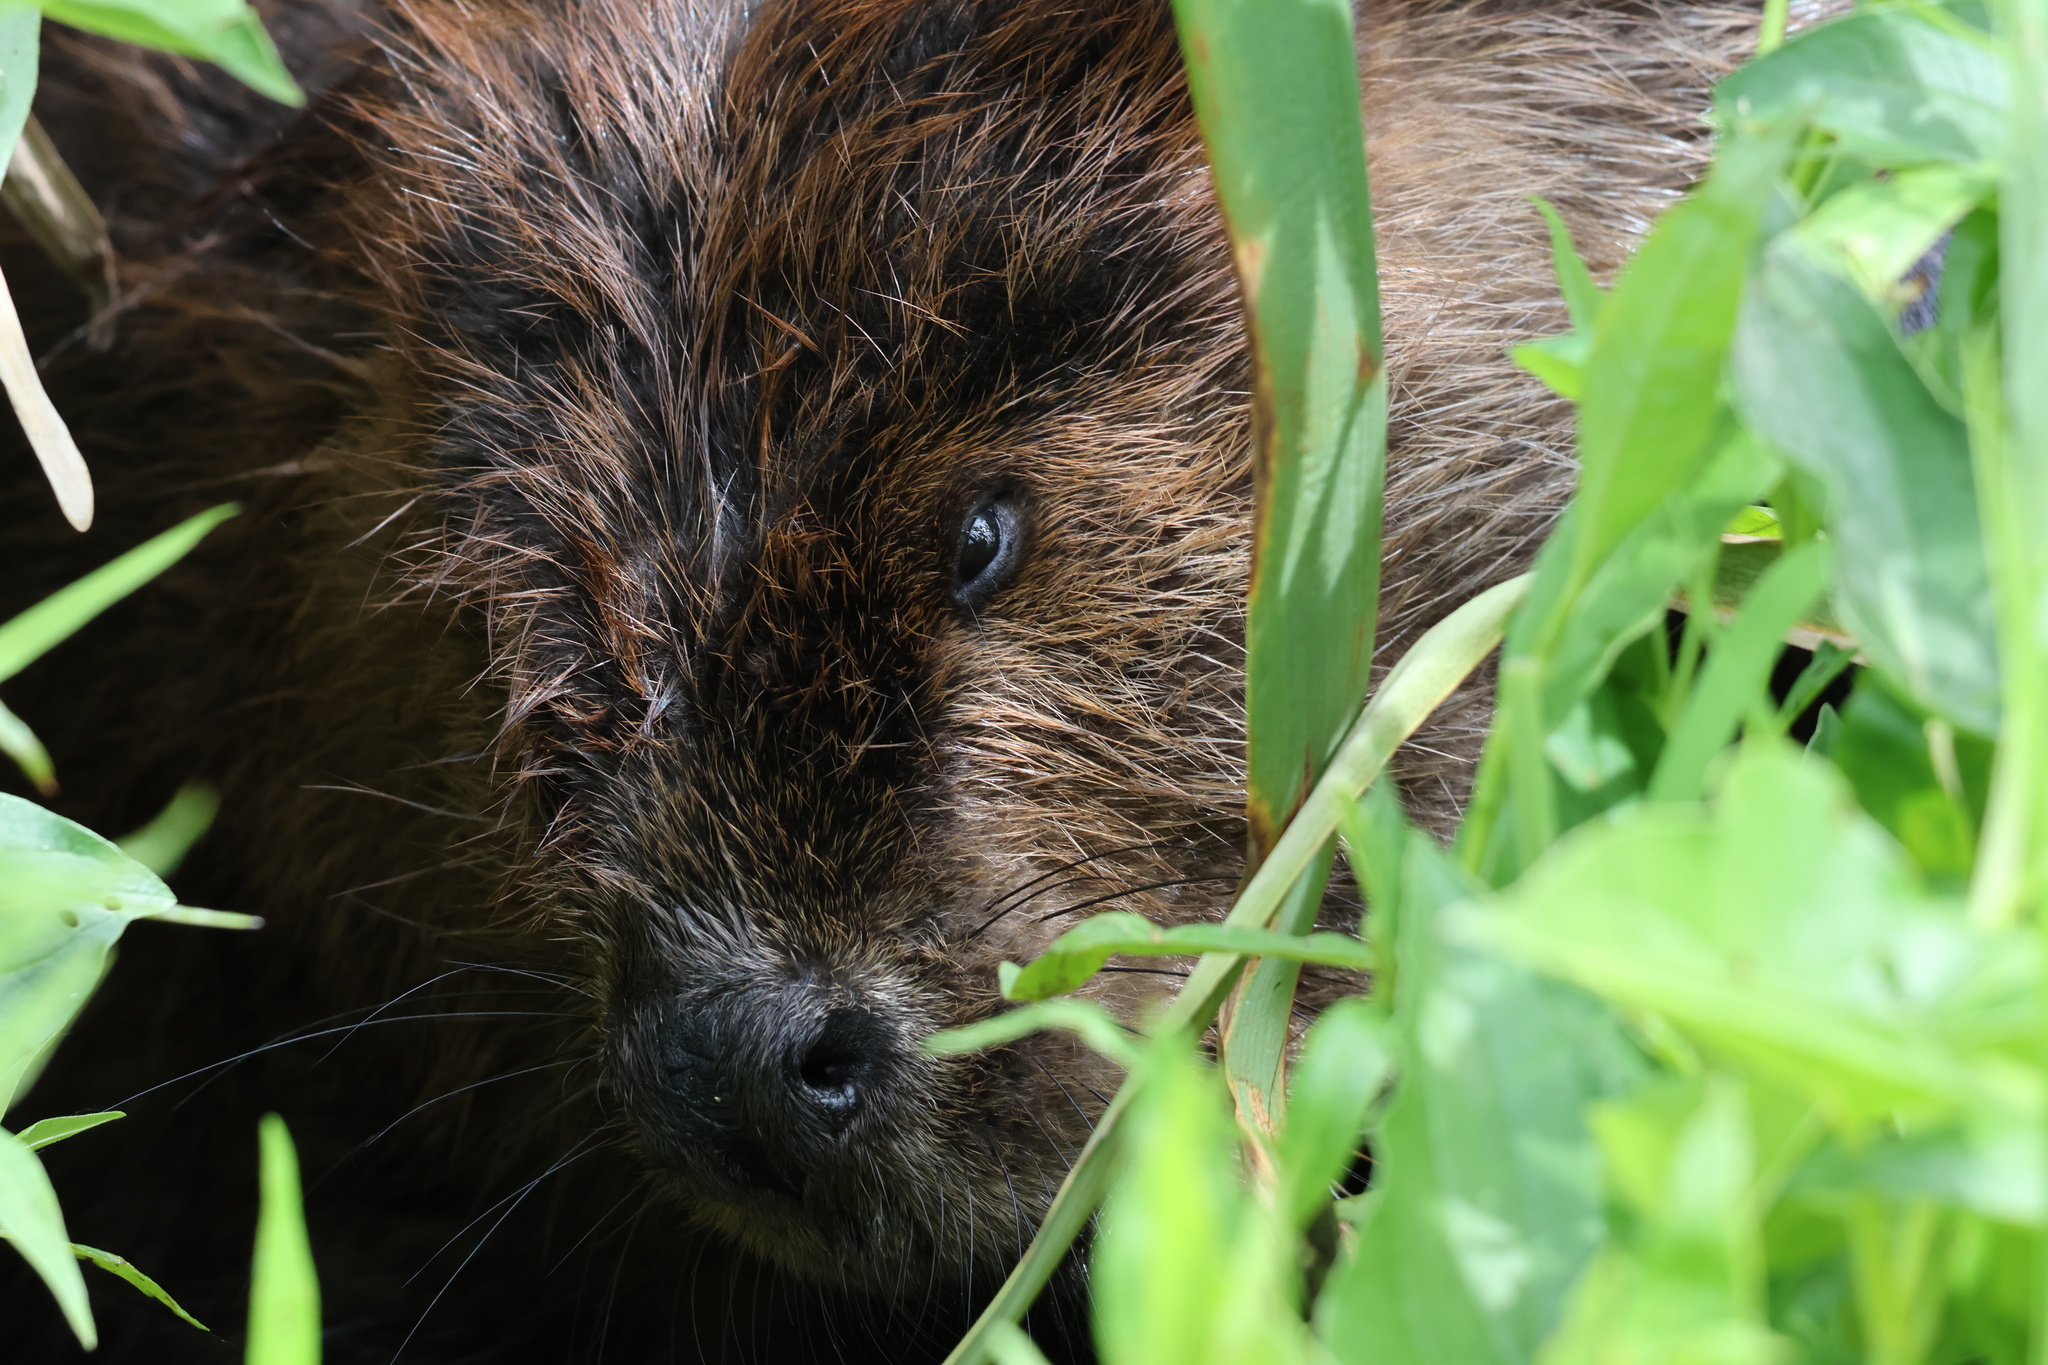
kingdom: Animalia
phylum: Chordata
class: Mammalia
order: Rodentia
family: Castoridae
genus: Castor
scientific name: Castor canadensis
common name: American beaver
